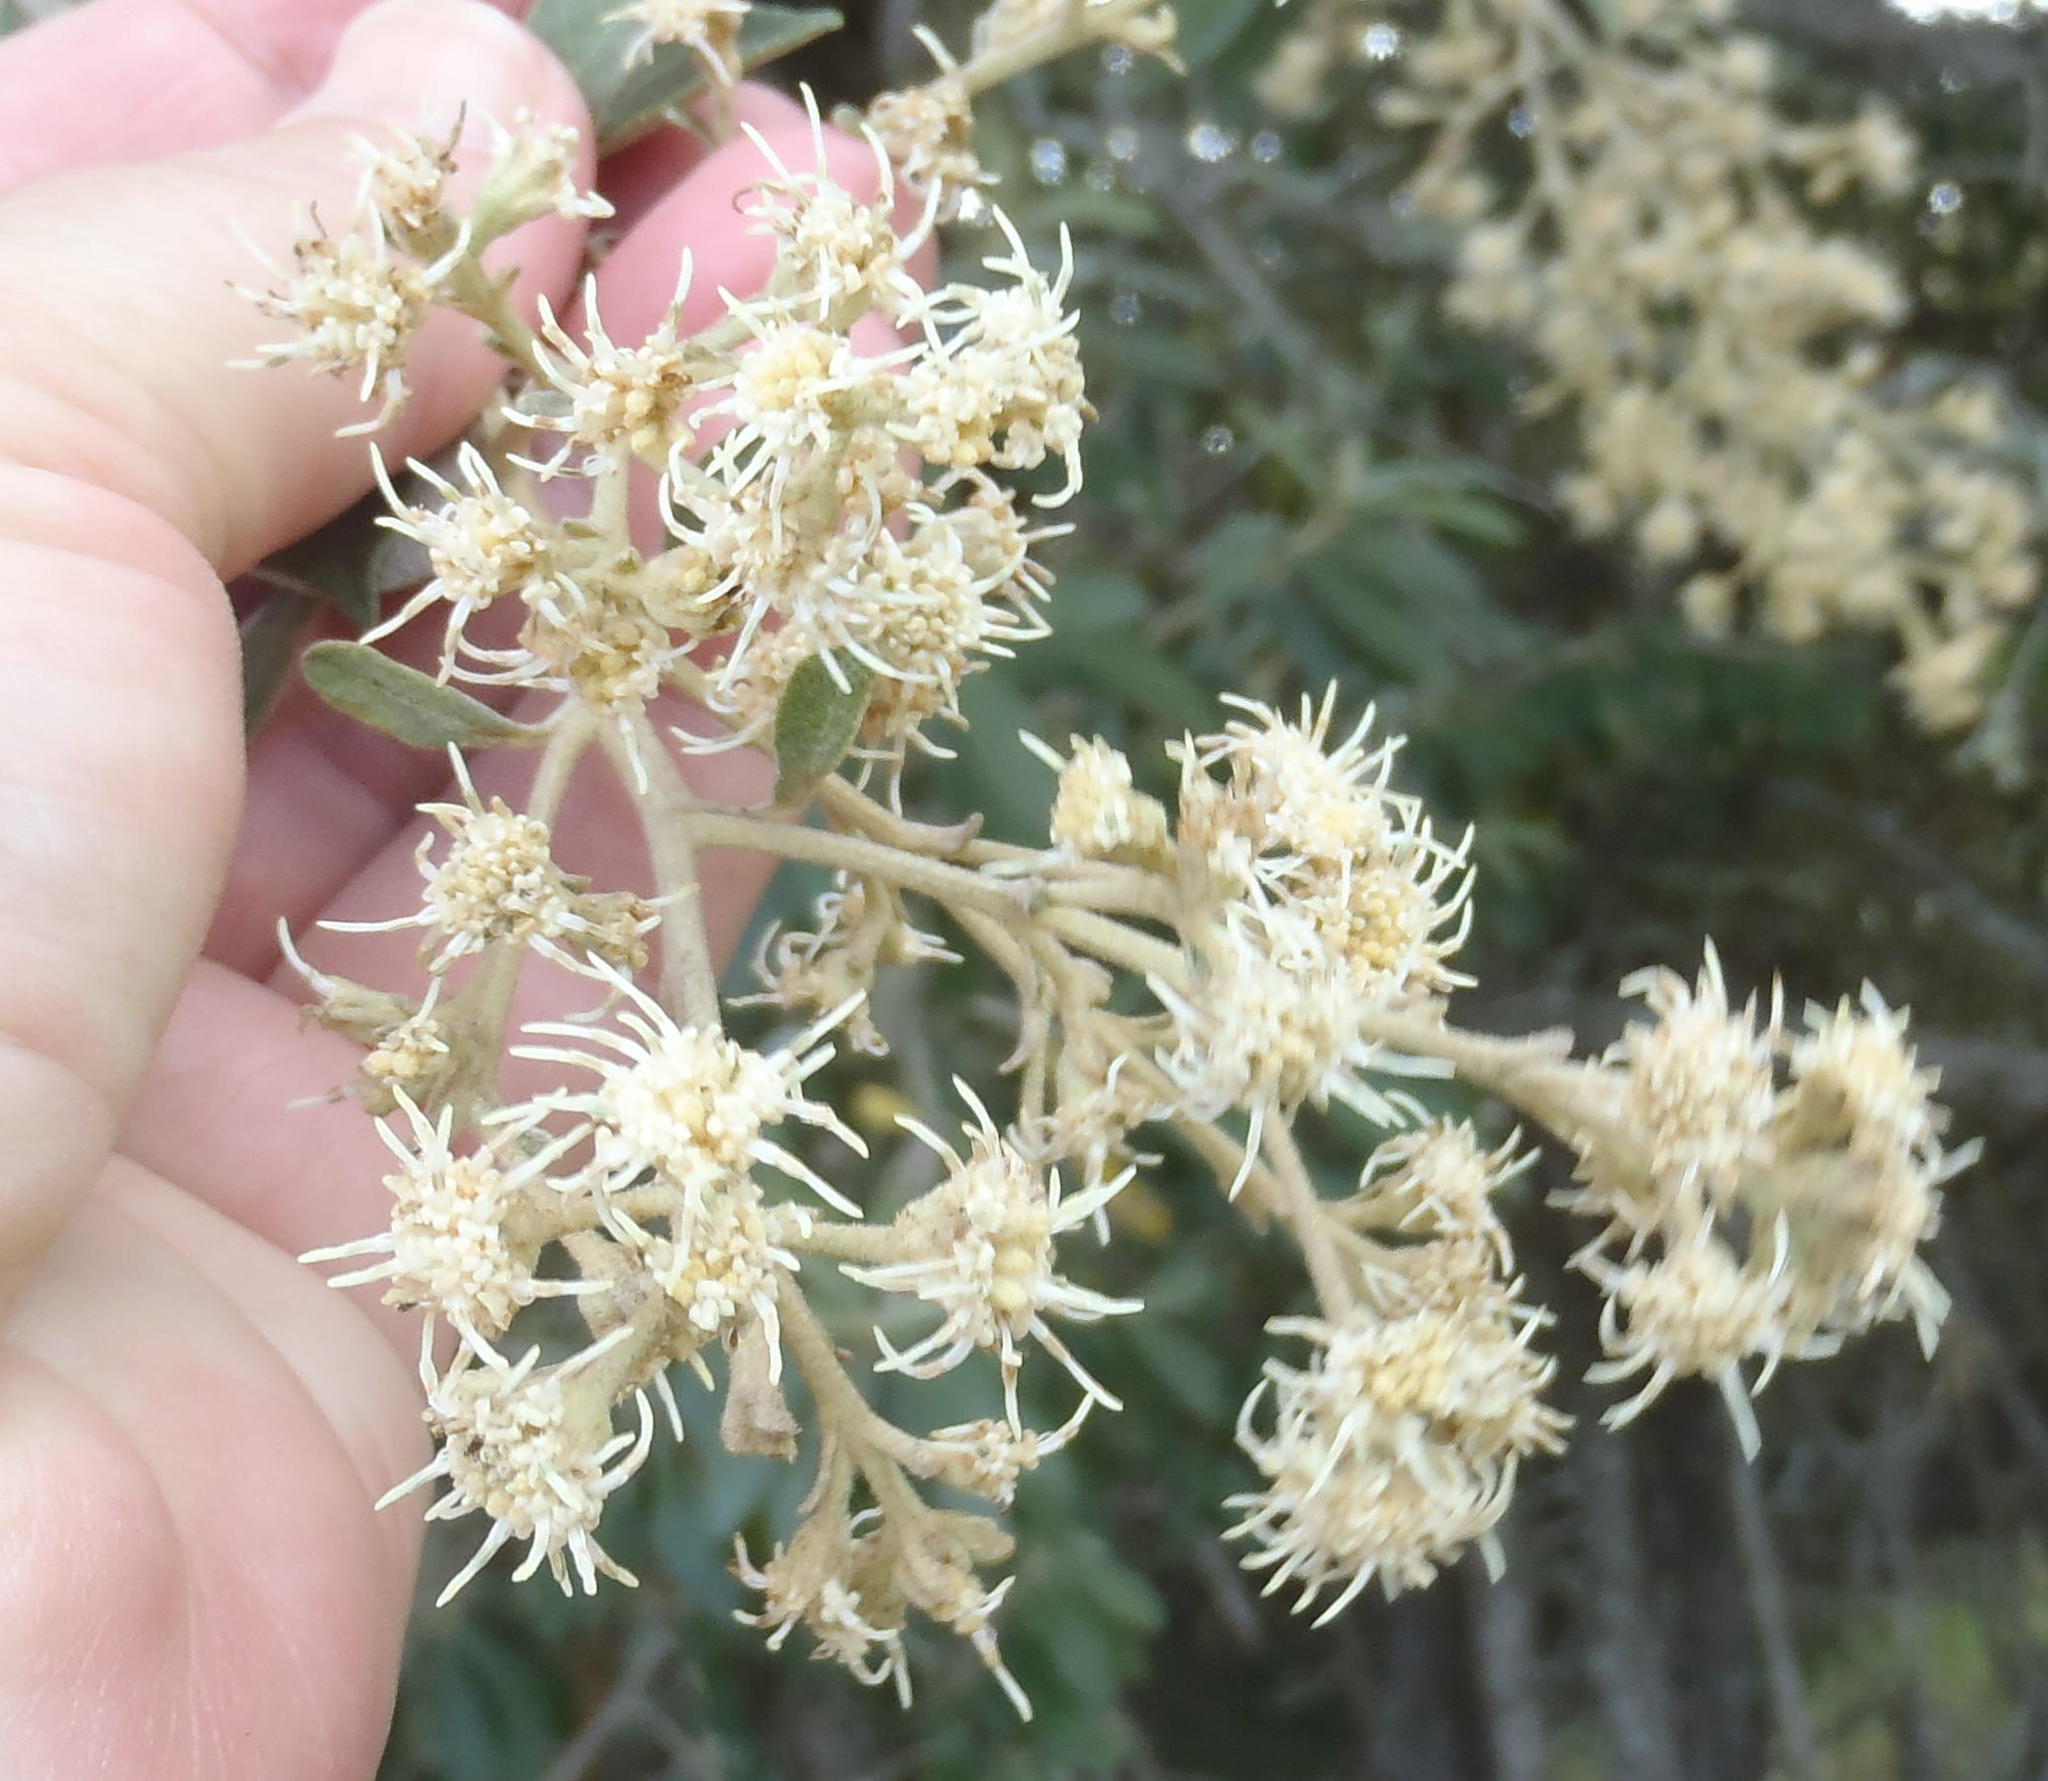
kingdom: Plantae
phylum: Tracheophyta
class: Magnoliopsida
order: Asterales
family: Asteraceae
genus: Tarchonanthus
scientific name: Tarchonanthus littoralis
